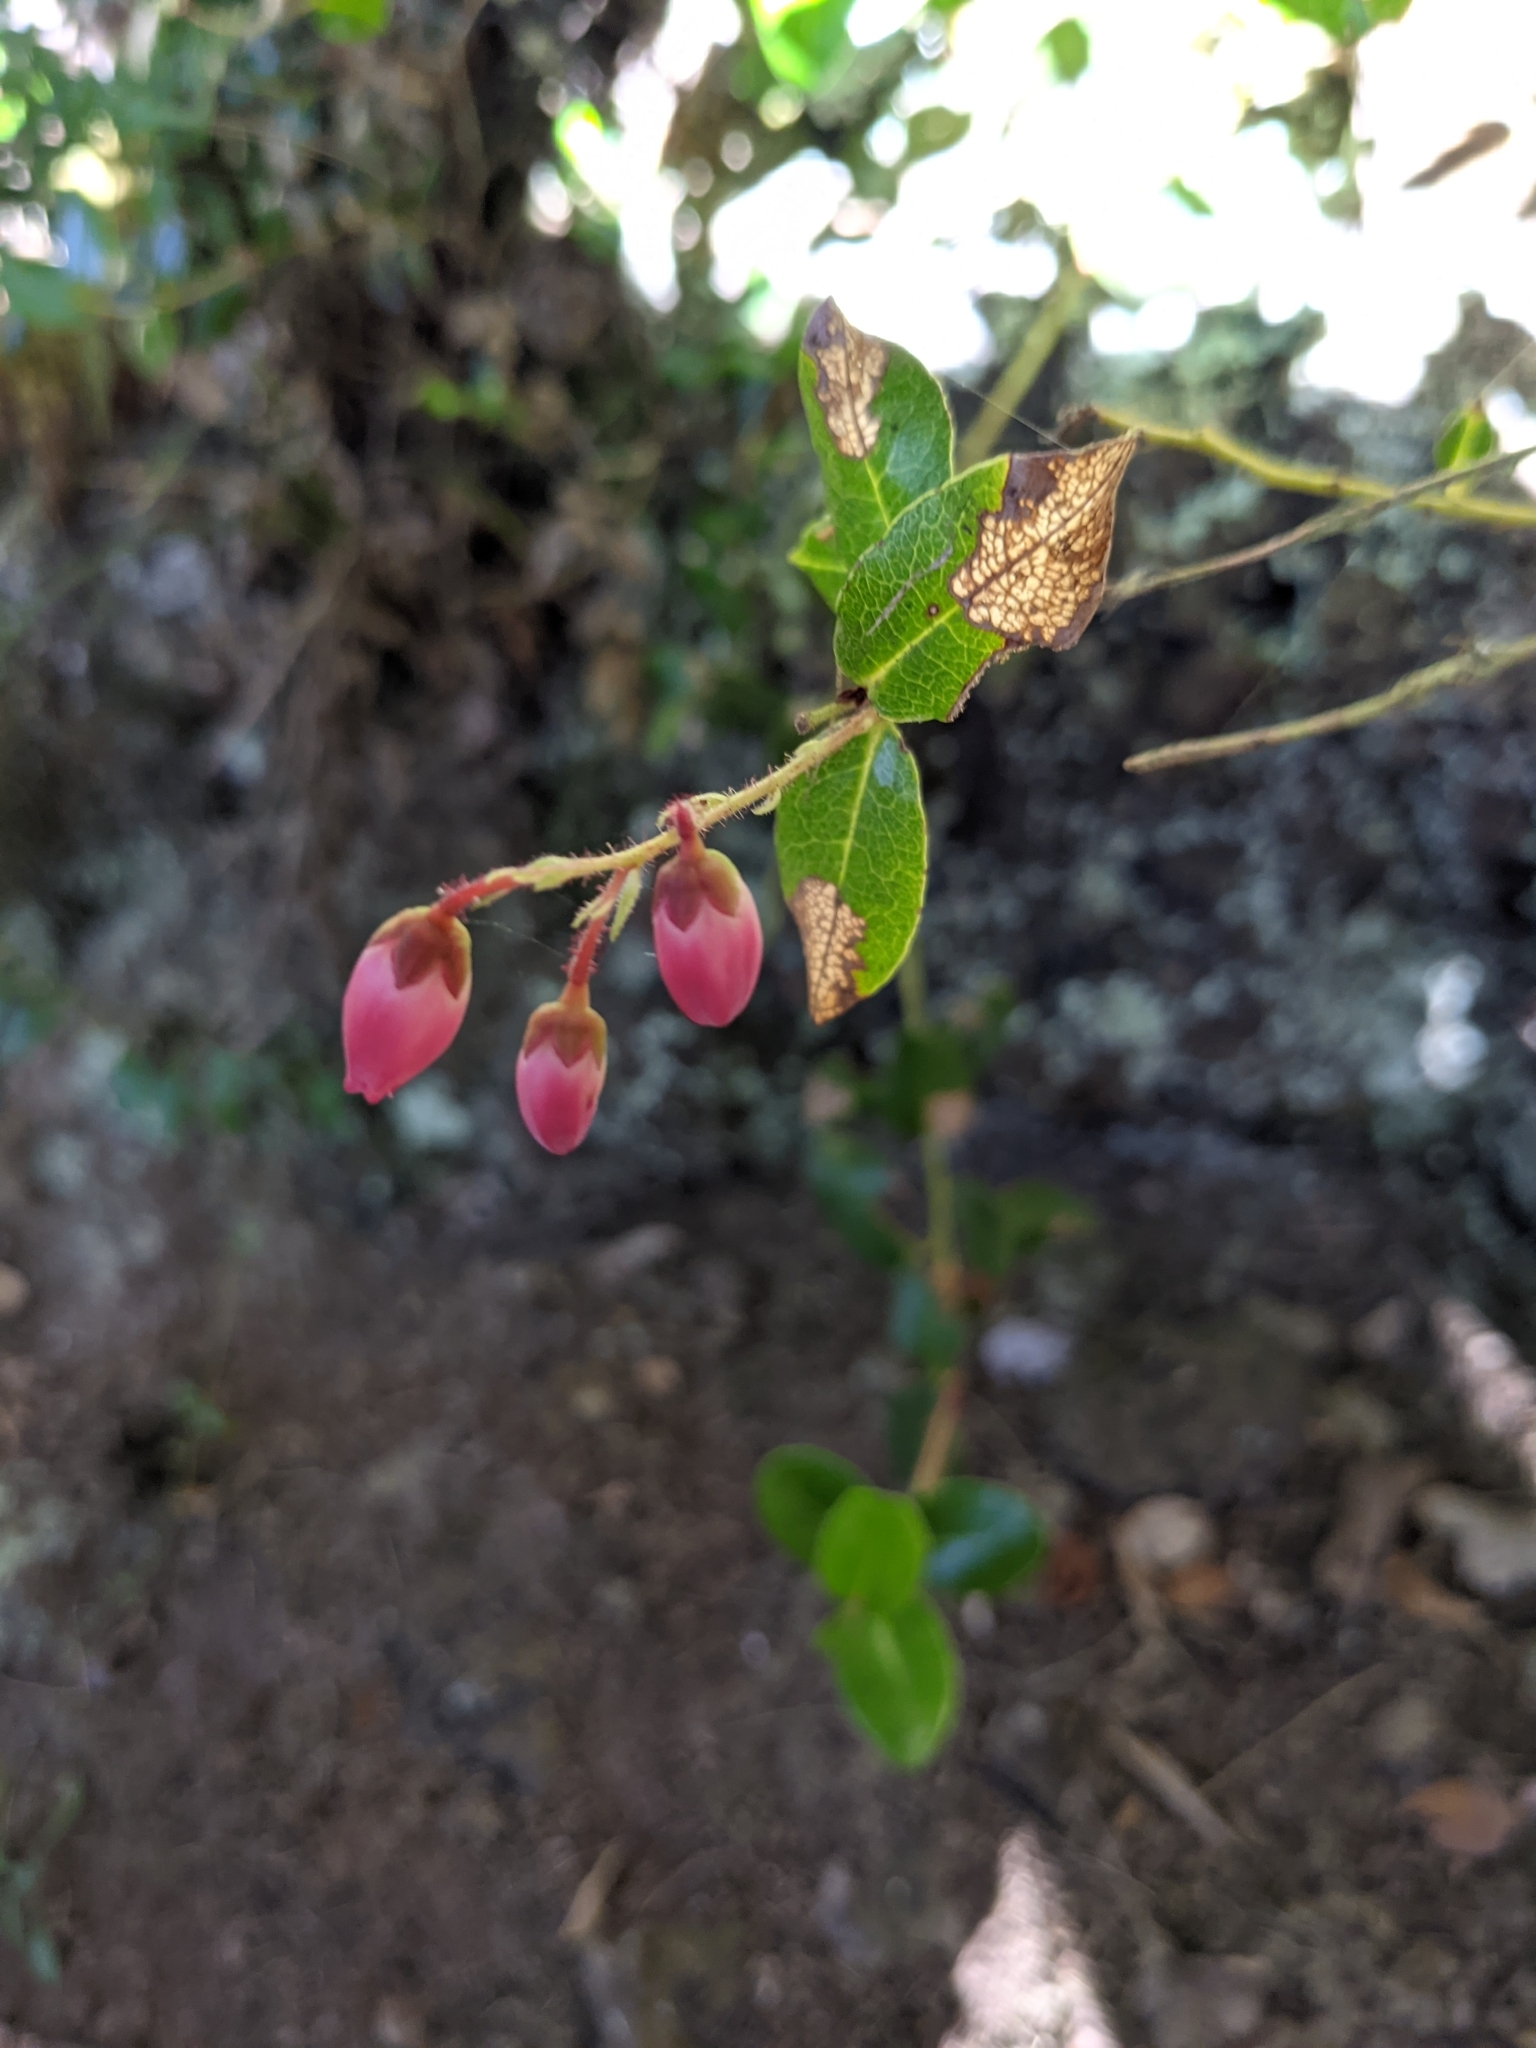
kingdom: Plantae
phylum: Tracheophyta
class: Magnoliopsida
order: Ericales
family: Ericaceae
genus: Agarista
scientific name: Agarista buxifolia
